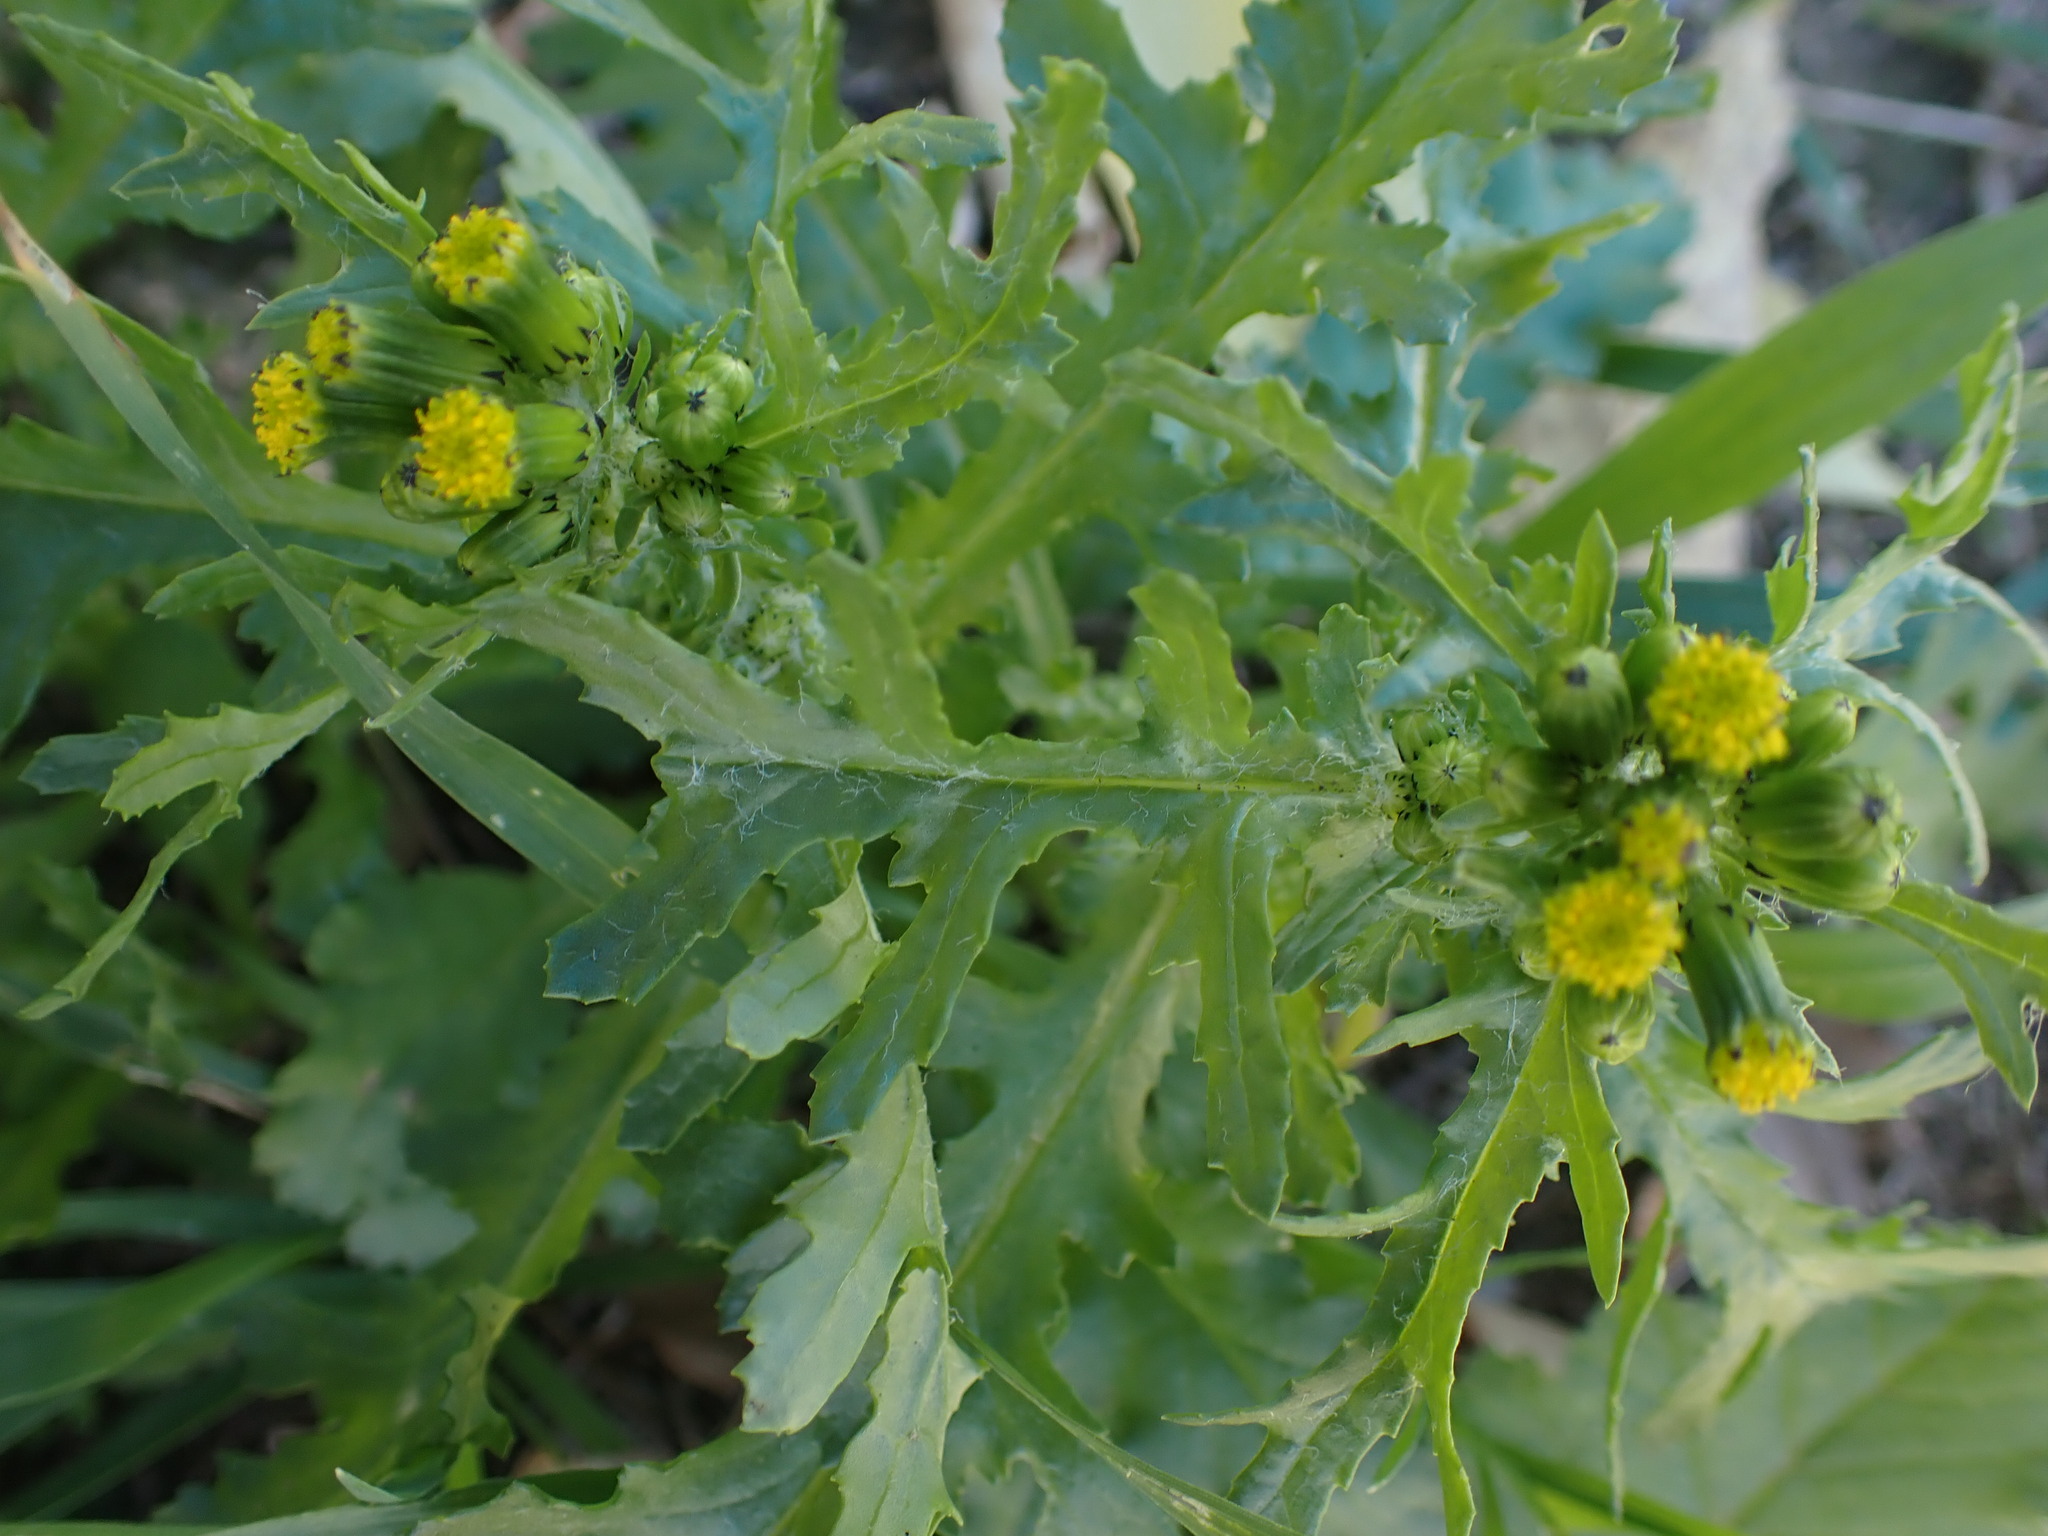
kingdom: Plantae
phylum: Tracheophyta
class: Magnoliopsida
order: Asterales
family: Asteraceae
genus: Senecio
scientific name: Senecio vulgaris
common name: Old-man-in-the-spring
